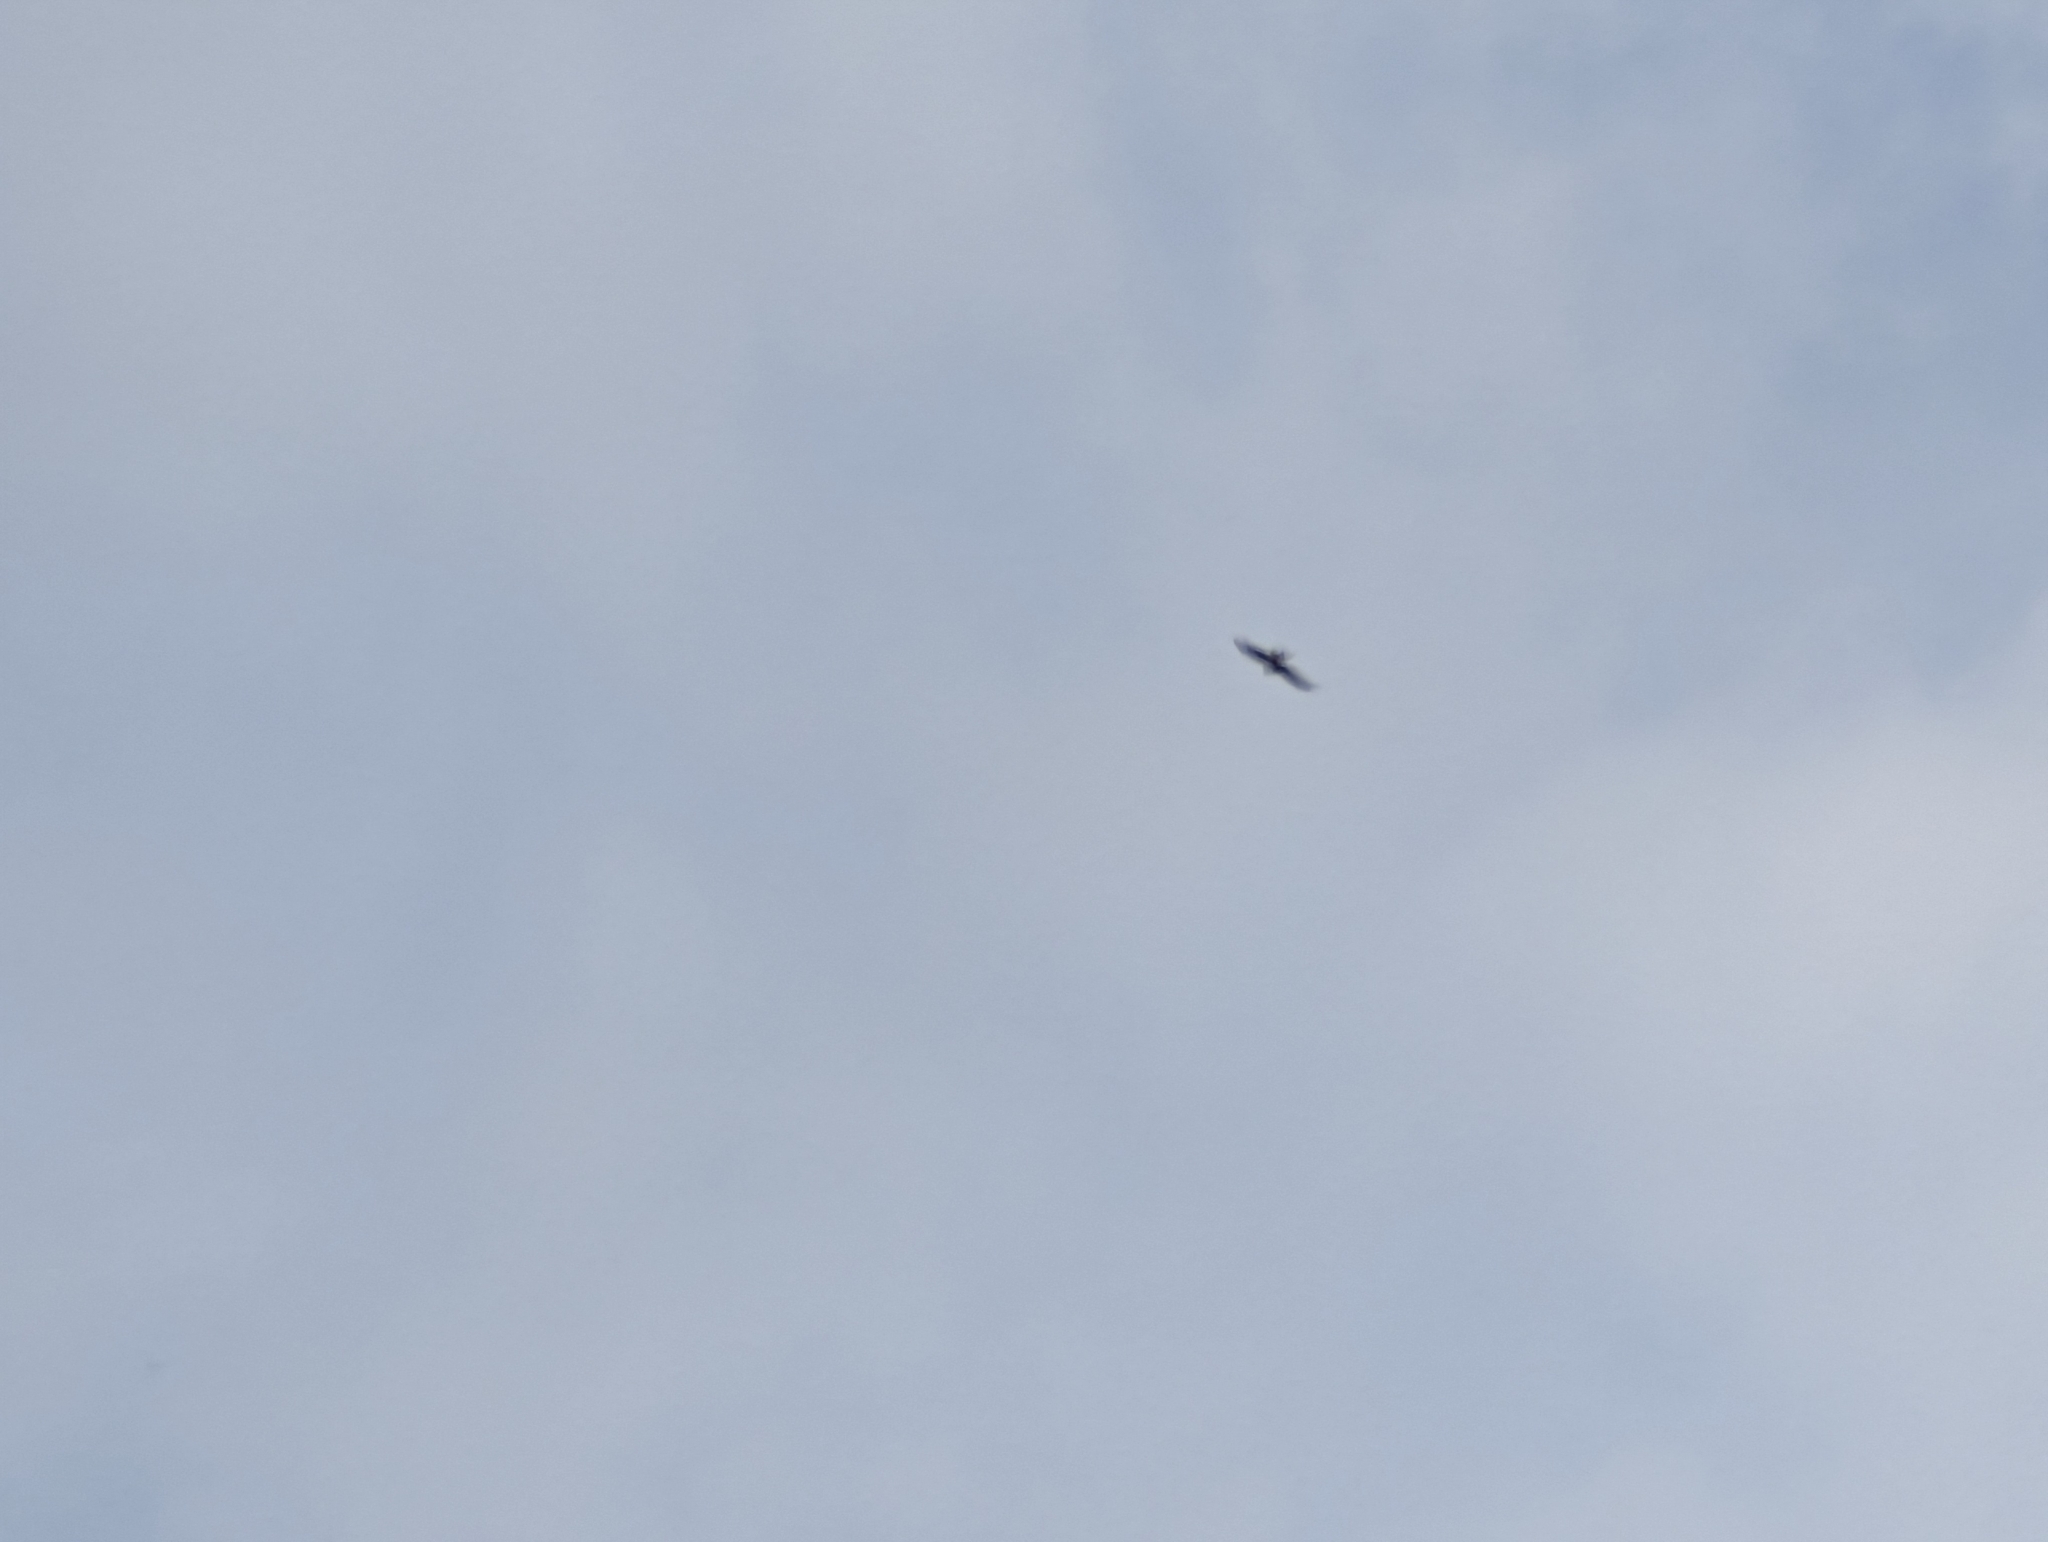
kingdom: Animalia
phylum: Chordata
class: Aves
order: Accipitriformes
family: Accipitridae
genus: Milvus
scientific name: Milvus milvus
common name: Red kite
